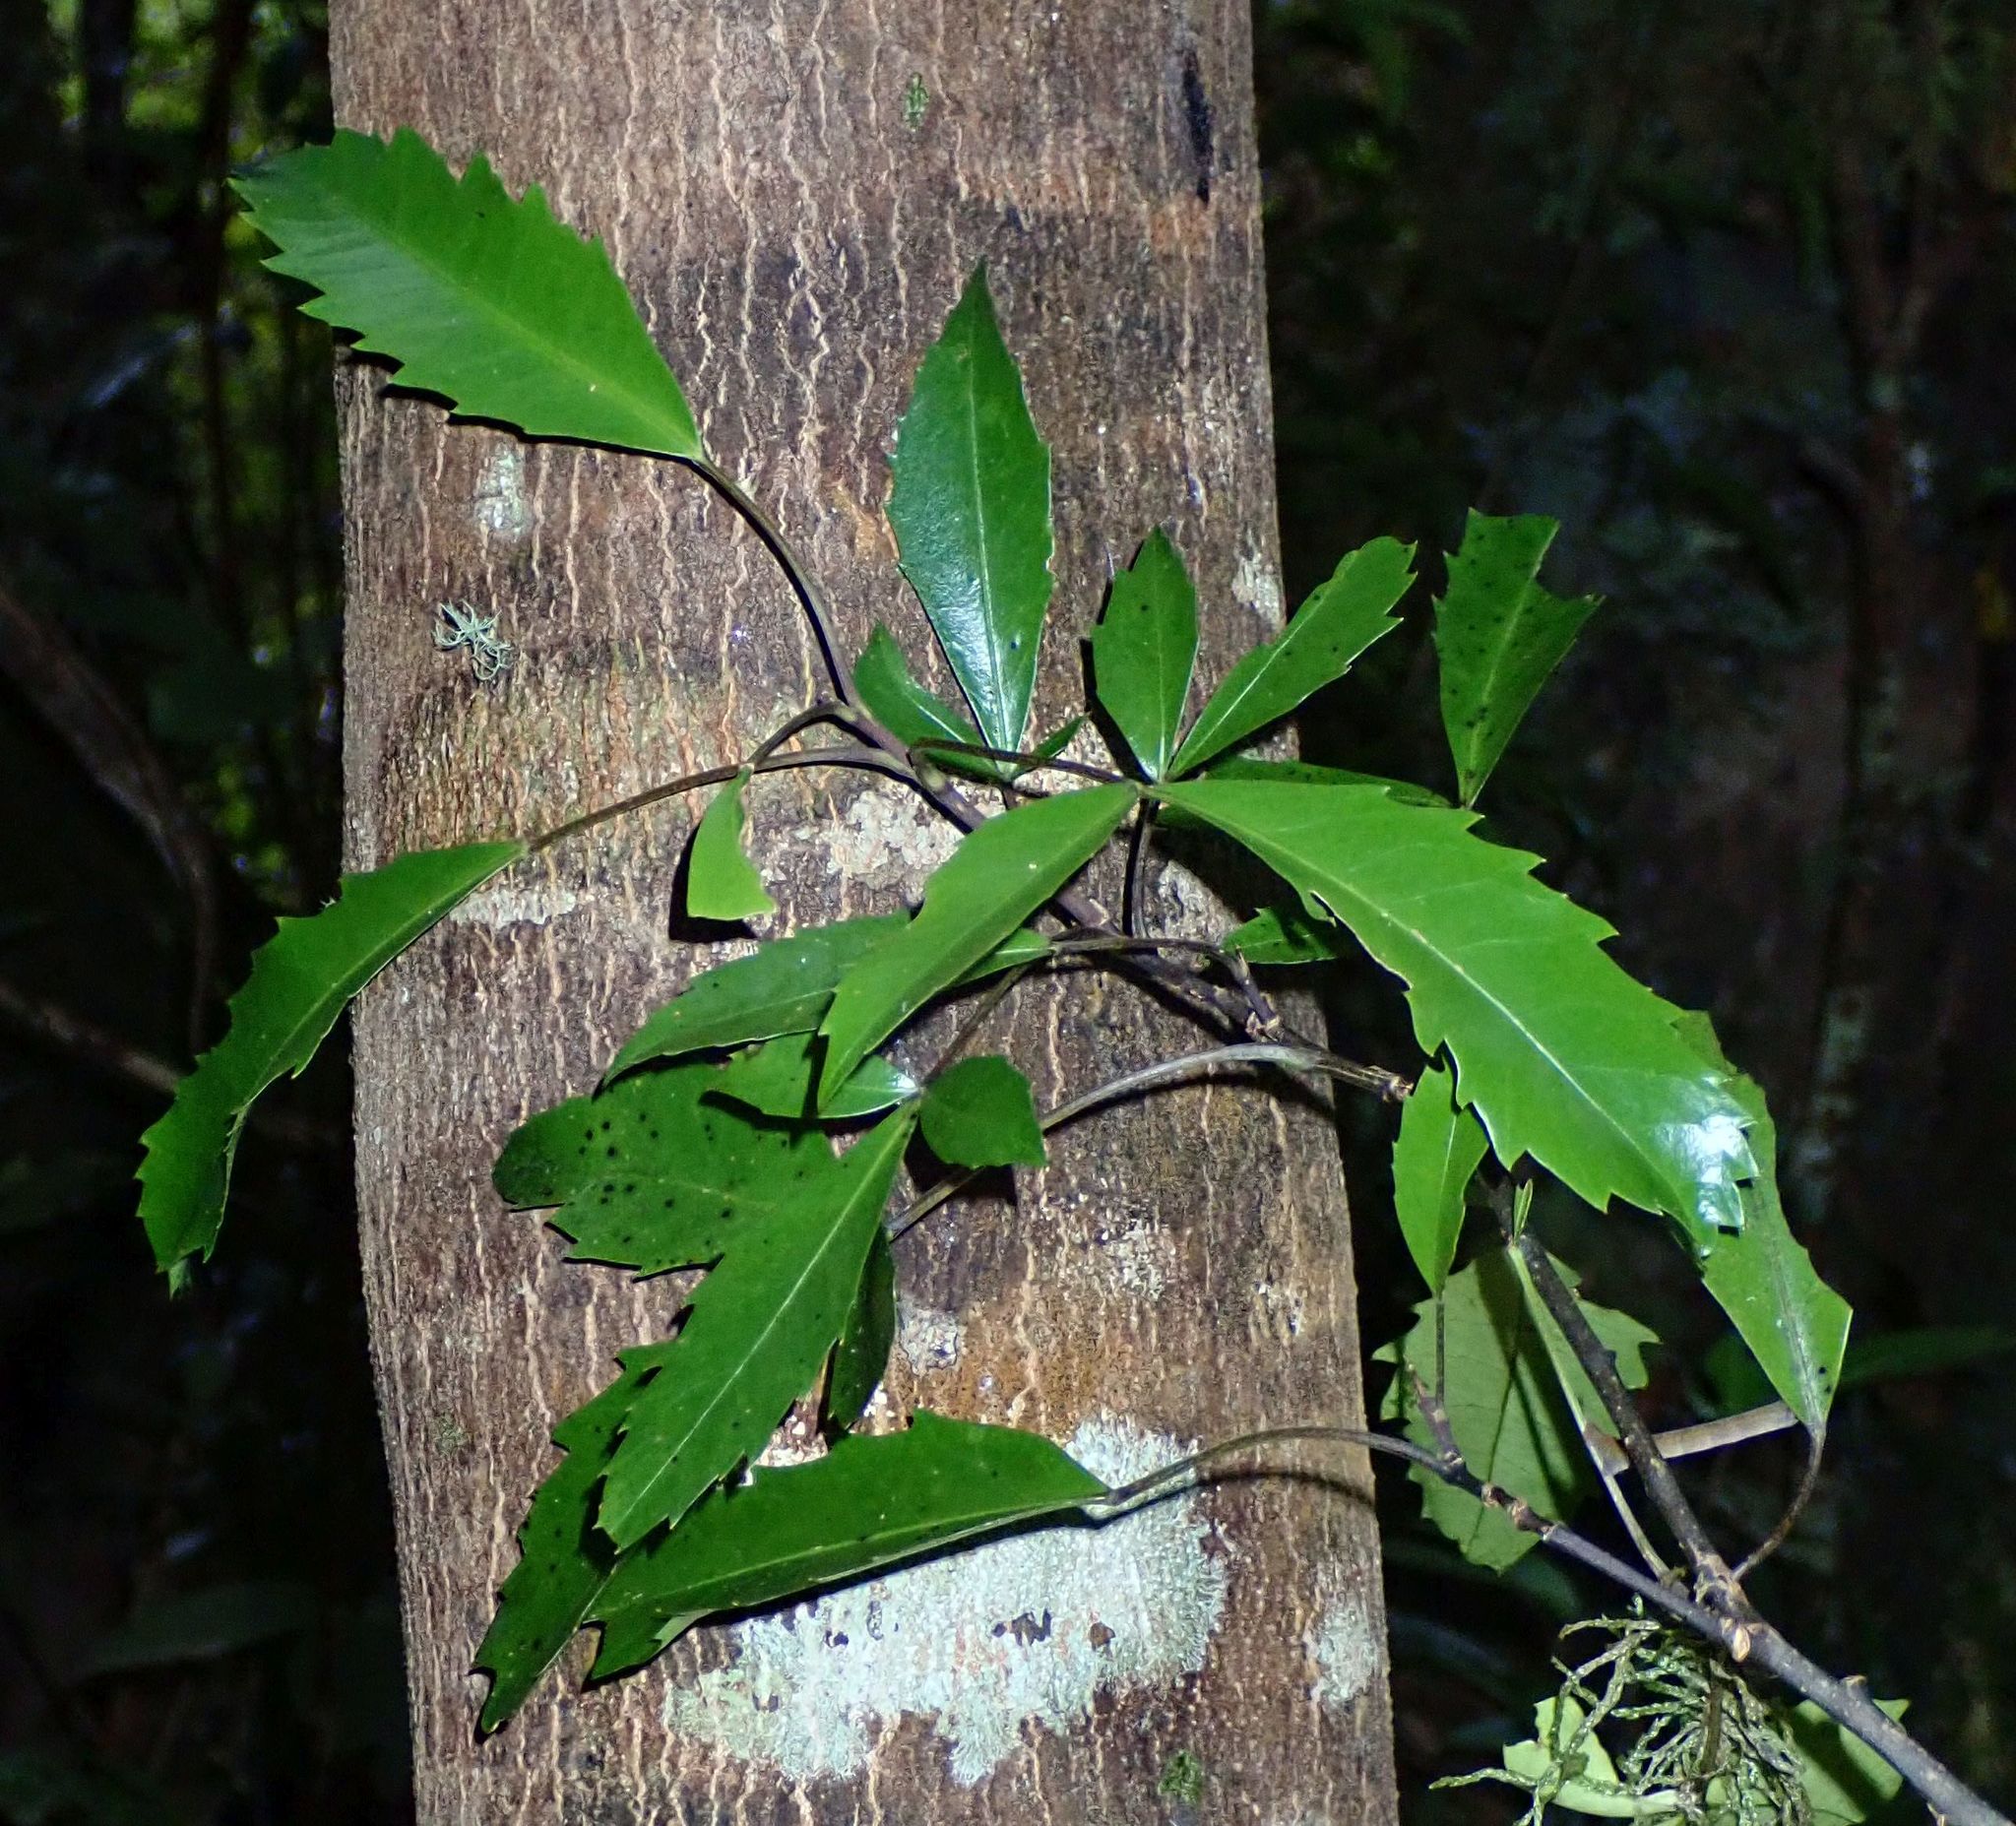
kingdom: Plantae
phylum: Tracheophyta
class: Magnoliopsida
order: Apiales
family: Araliaceae
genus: Raukaua
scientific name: Raukaua simplex
